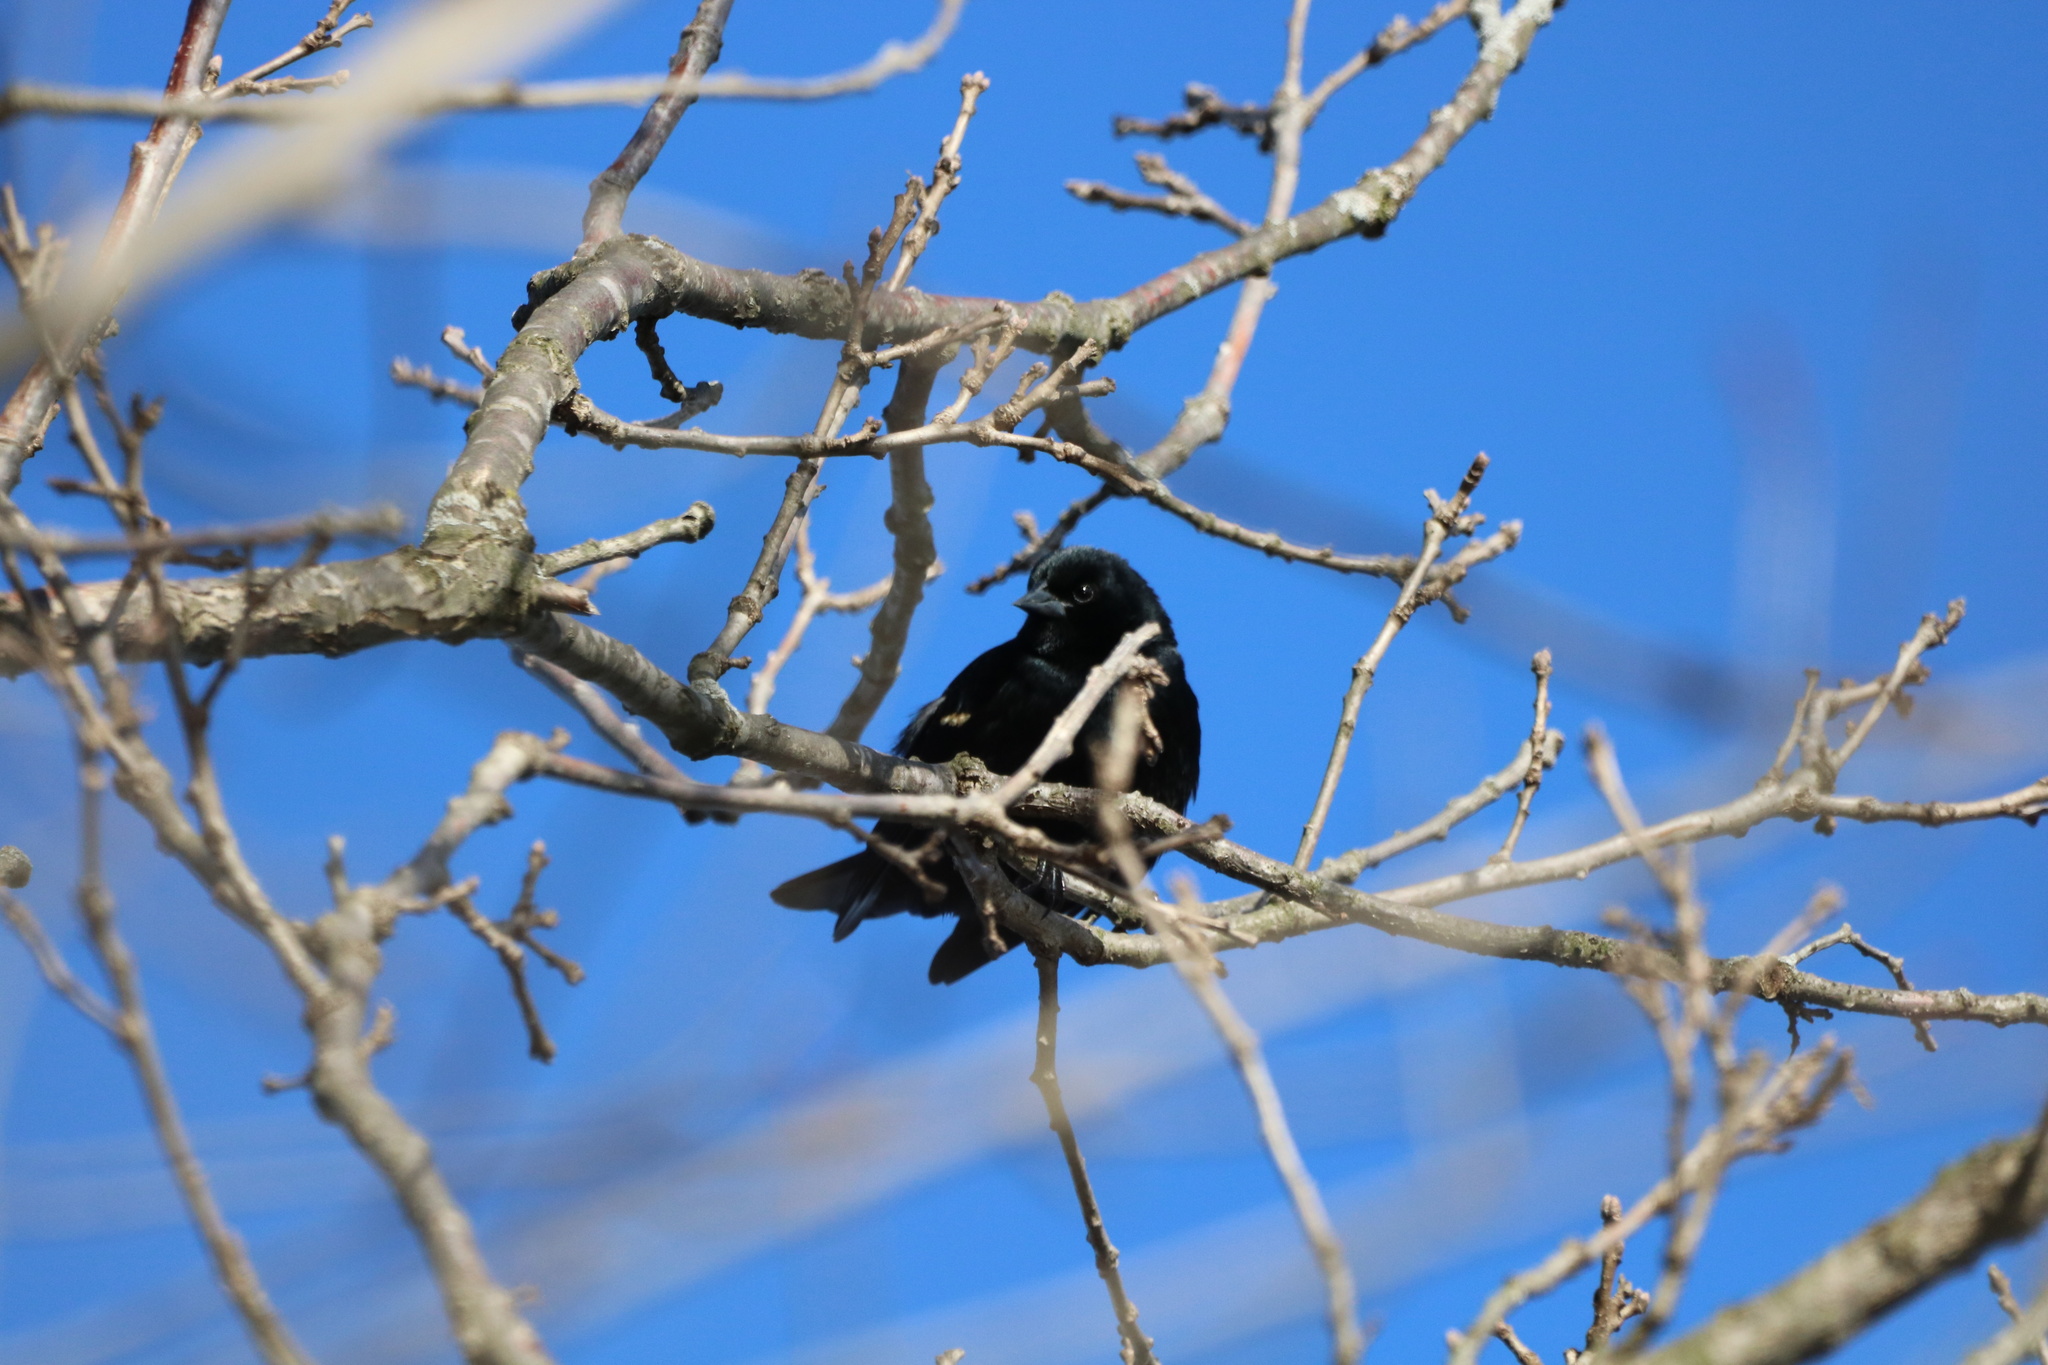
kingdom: Animalia
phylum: Chordata
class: Aves
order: Passeriformes
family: Icteridae
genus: Agelaius
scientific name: Agelaius phoeniceus
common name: Red-winged blackbird
